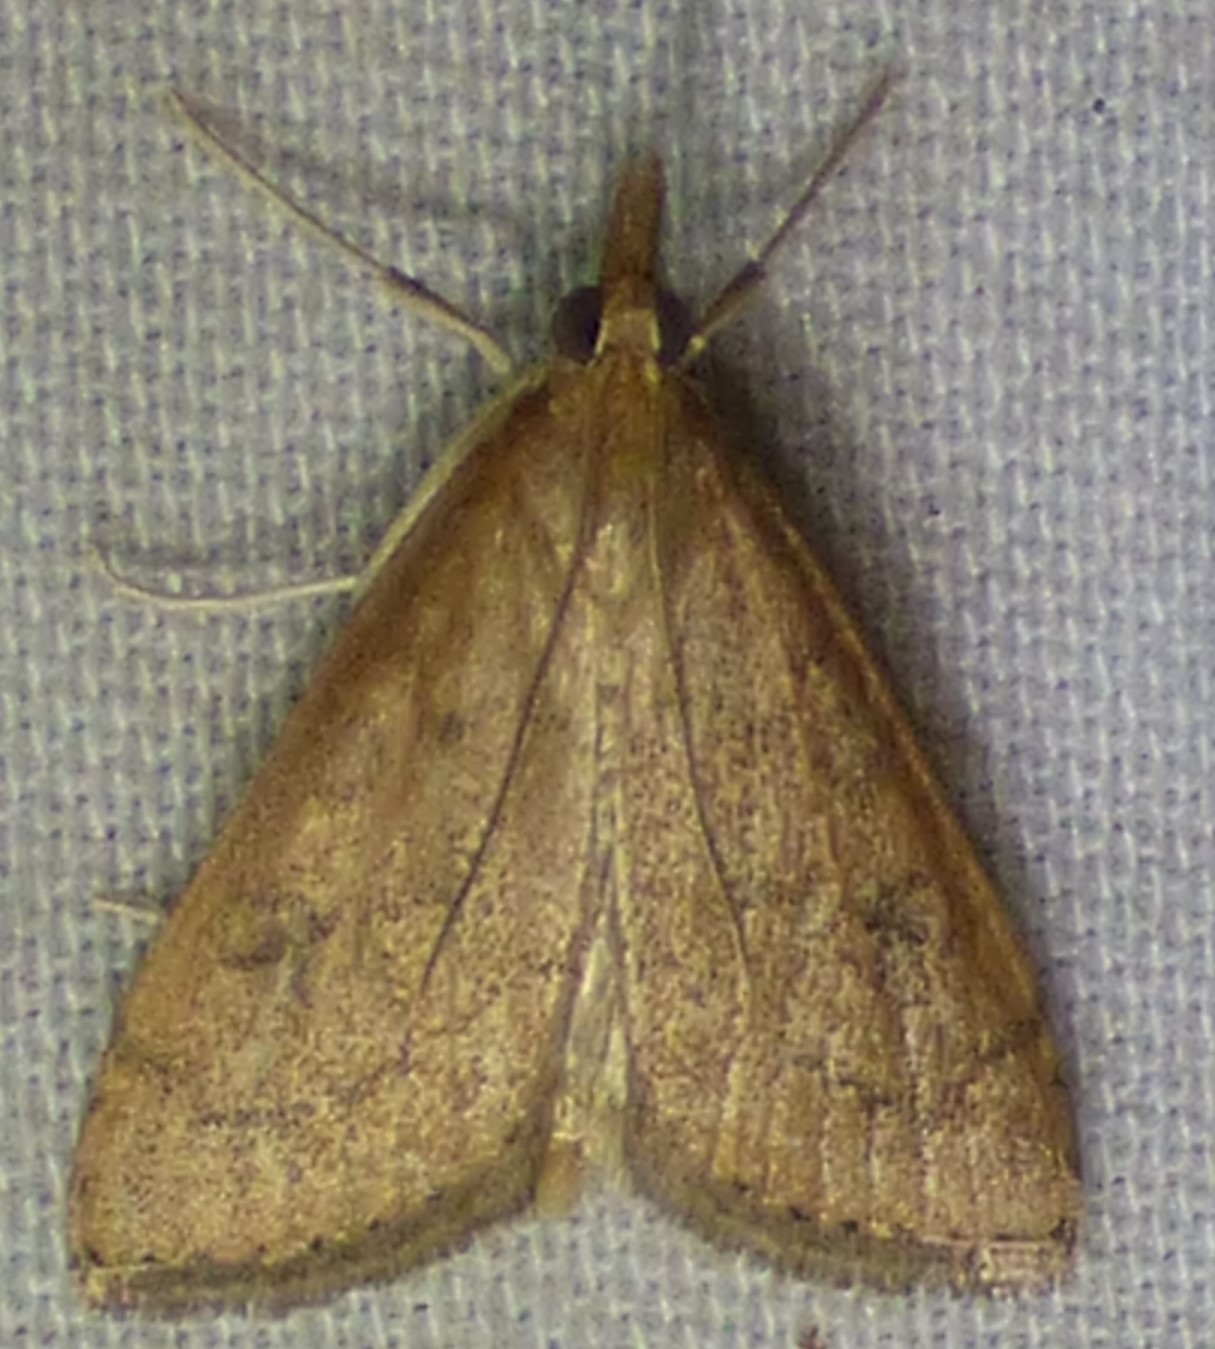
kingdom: Animalia
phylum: Arthropoda
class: Insecta
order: Lepidoptera
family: Crambidae
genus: Udea
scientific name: Udea rubigalis
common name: Celery leaftier moth
